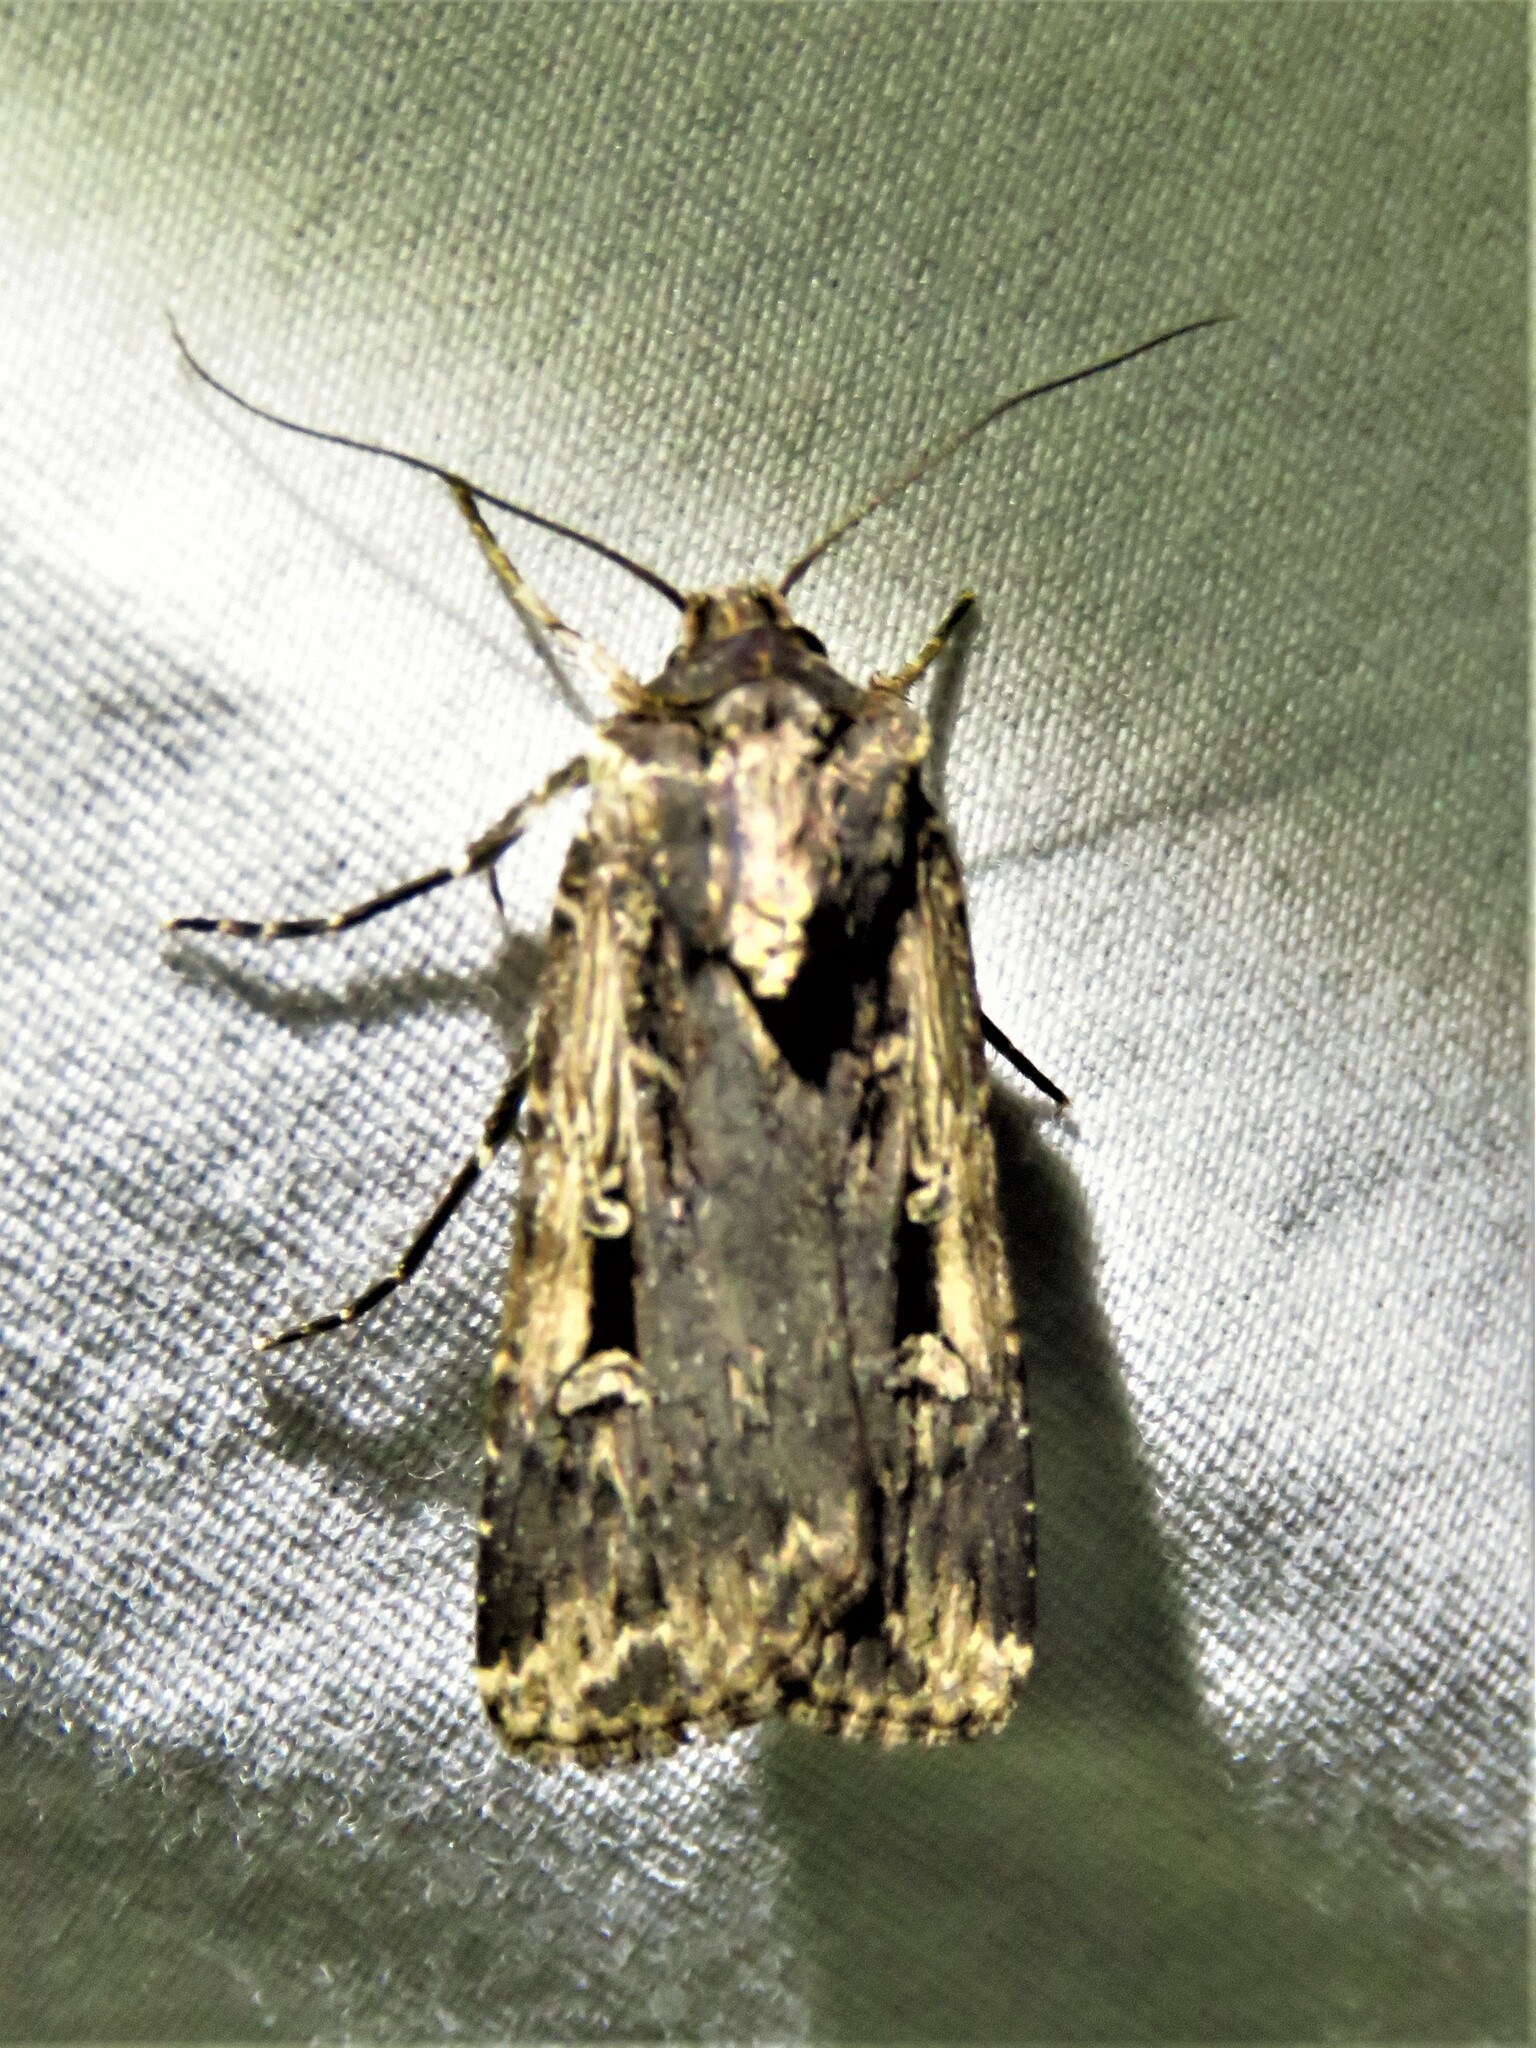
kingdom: Animalia
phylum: Arthropoda
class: Insecta
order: Lepidoptera
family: Noctuidae
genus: Feltia
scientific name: Feltia subterranea
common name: Granulate cutworm
